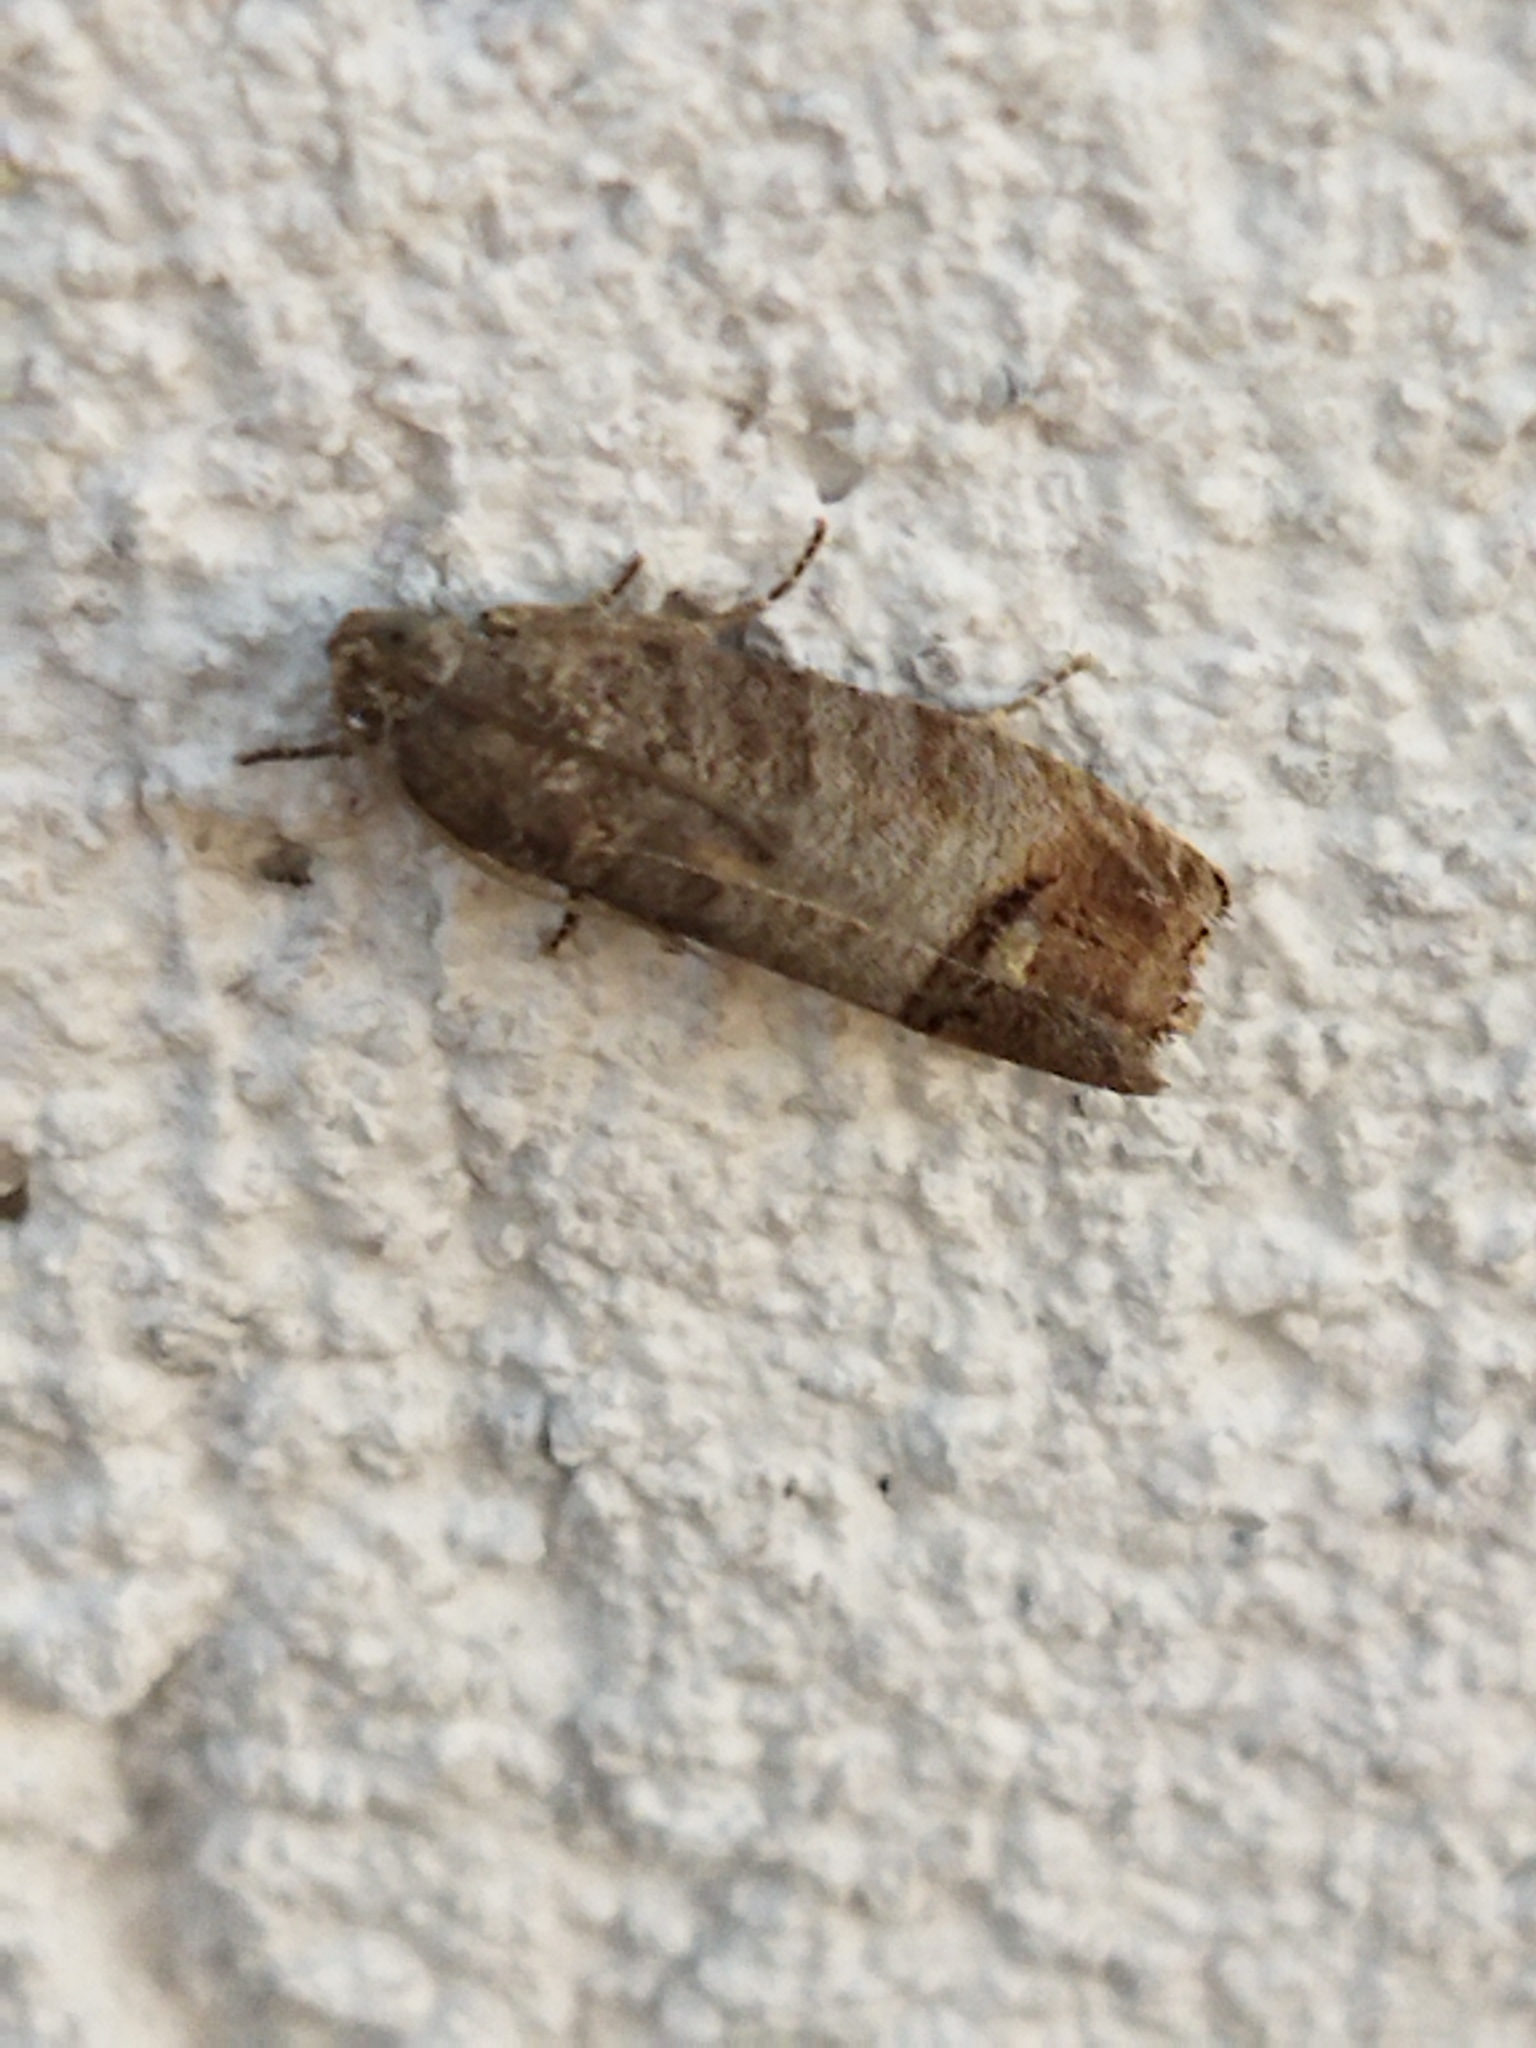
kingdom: Animalia
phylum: Arthropoda
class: Insecta
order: Lepidoptera
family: Tortricidae
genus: Cydia
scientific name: Cydia pomonella
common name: Codling moth
